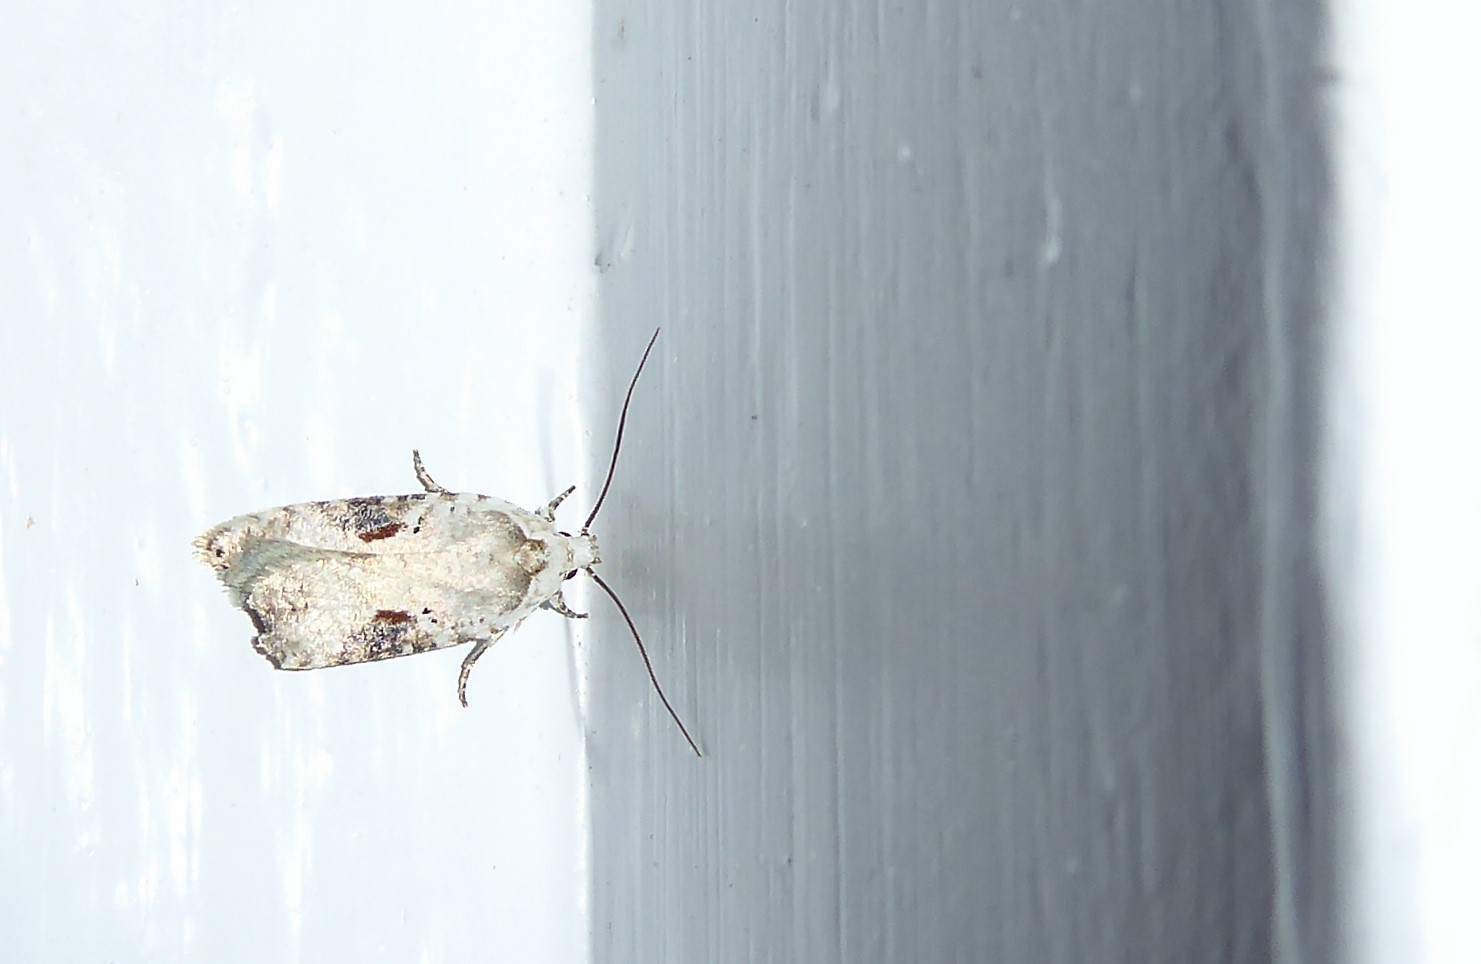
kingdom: Animalia
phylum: Arthropoda
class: Insecta
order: Lepidoptera
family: Depressariidae
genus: Agonopterix
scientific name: Agonopterix alstroemeriana
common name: Moth
